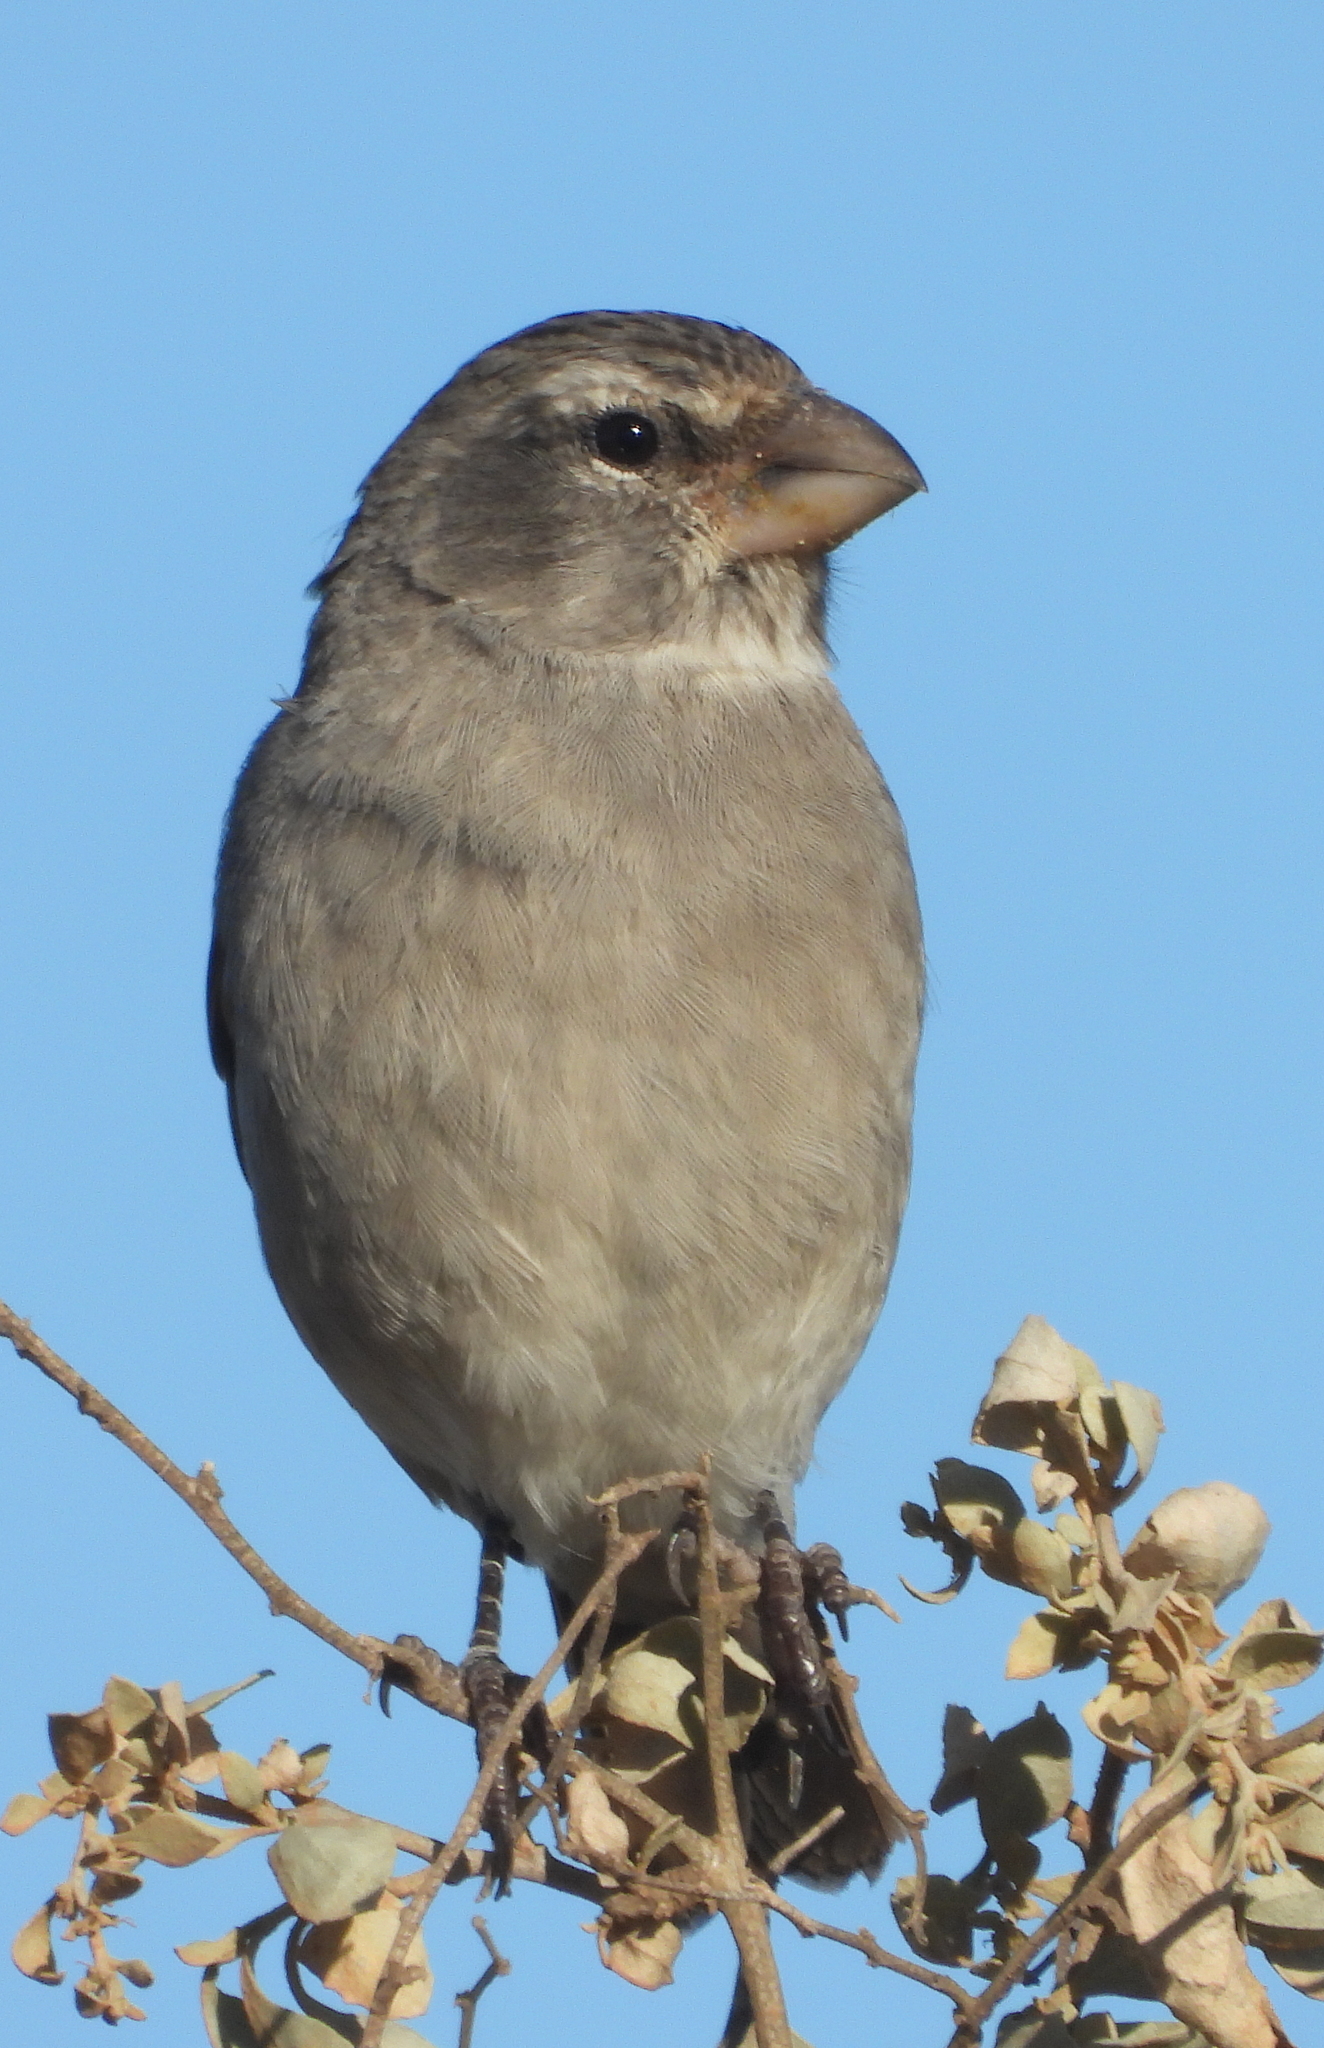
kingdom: Animalia
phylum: Chordata
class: Aves
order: Passeriformes
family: Fringillidae
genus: Crithagra
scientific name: Crithagra albogularis
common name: White-throated canary
